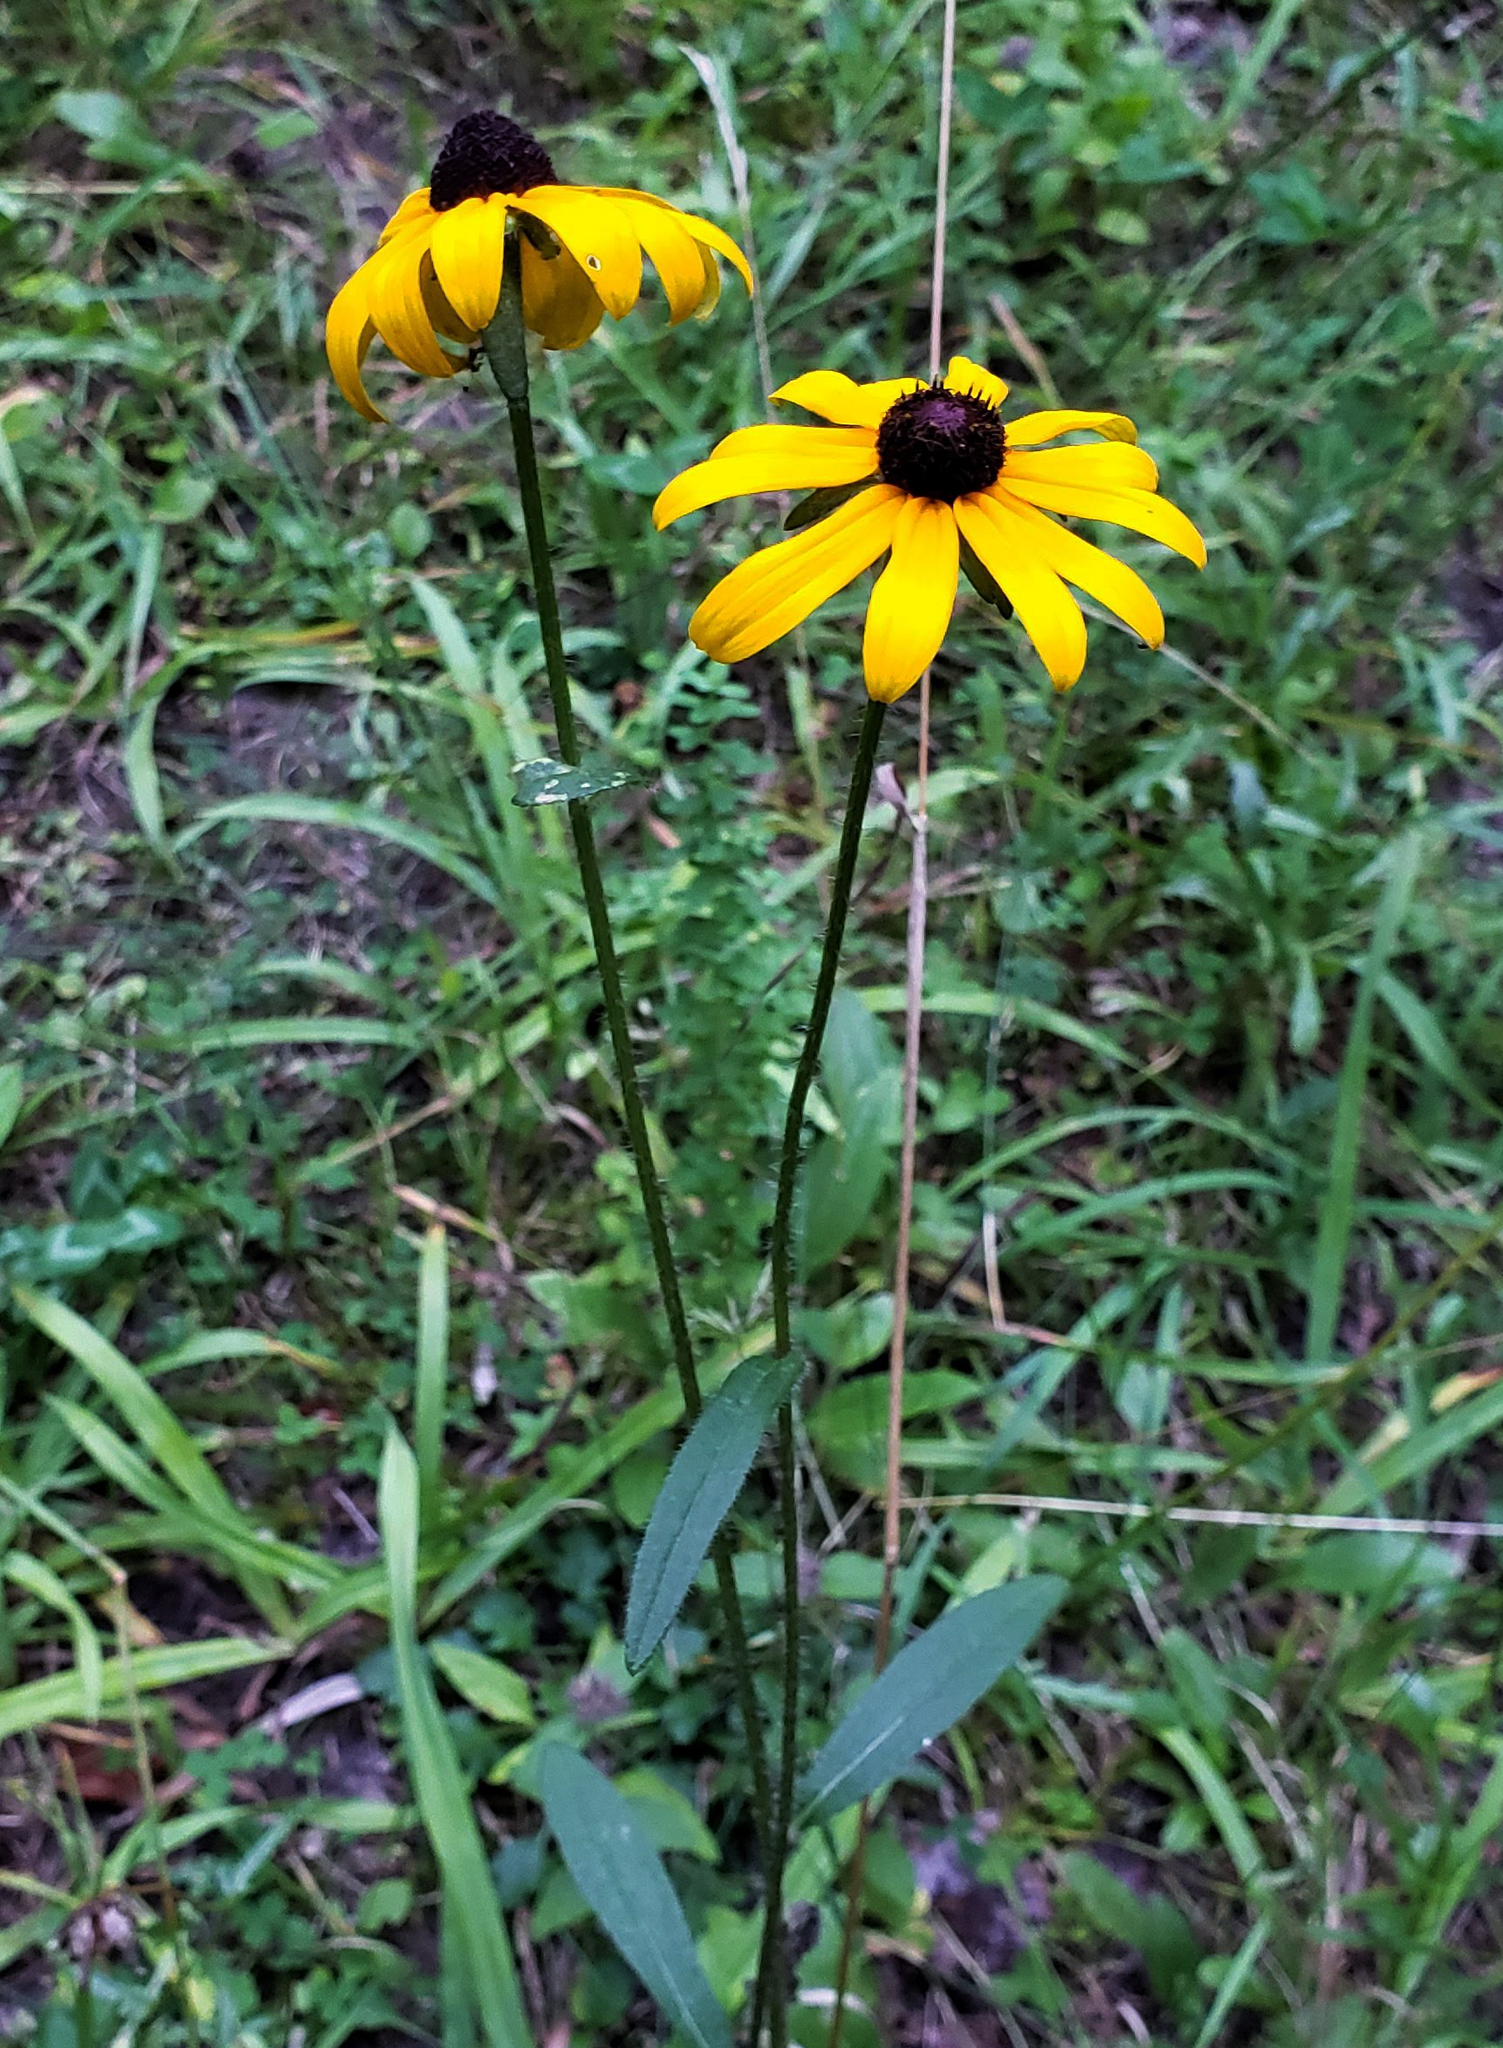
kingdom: Plantae
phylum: Tracheophyta
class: Magnoliopsida
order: Asterales
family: Asteraceae
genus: Rudbeckia
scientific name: Rudbeckia hirta
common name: Black-eyed-susan
